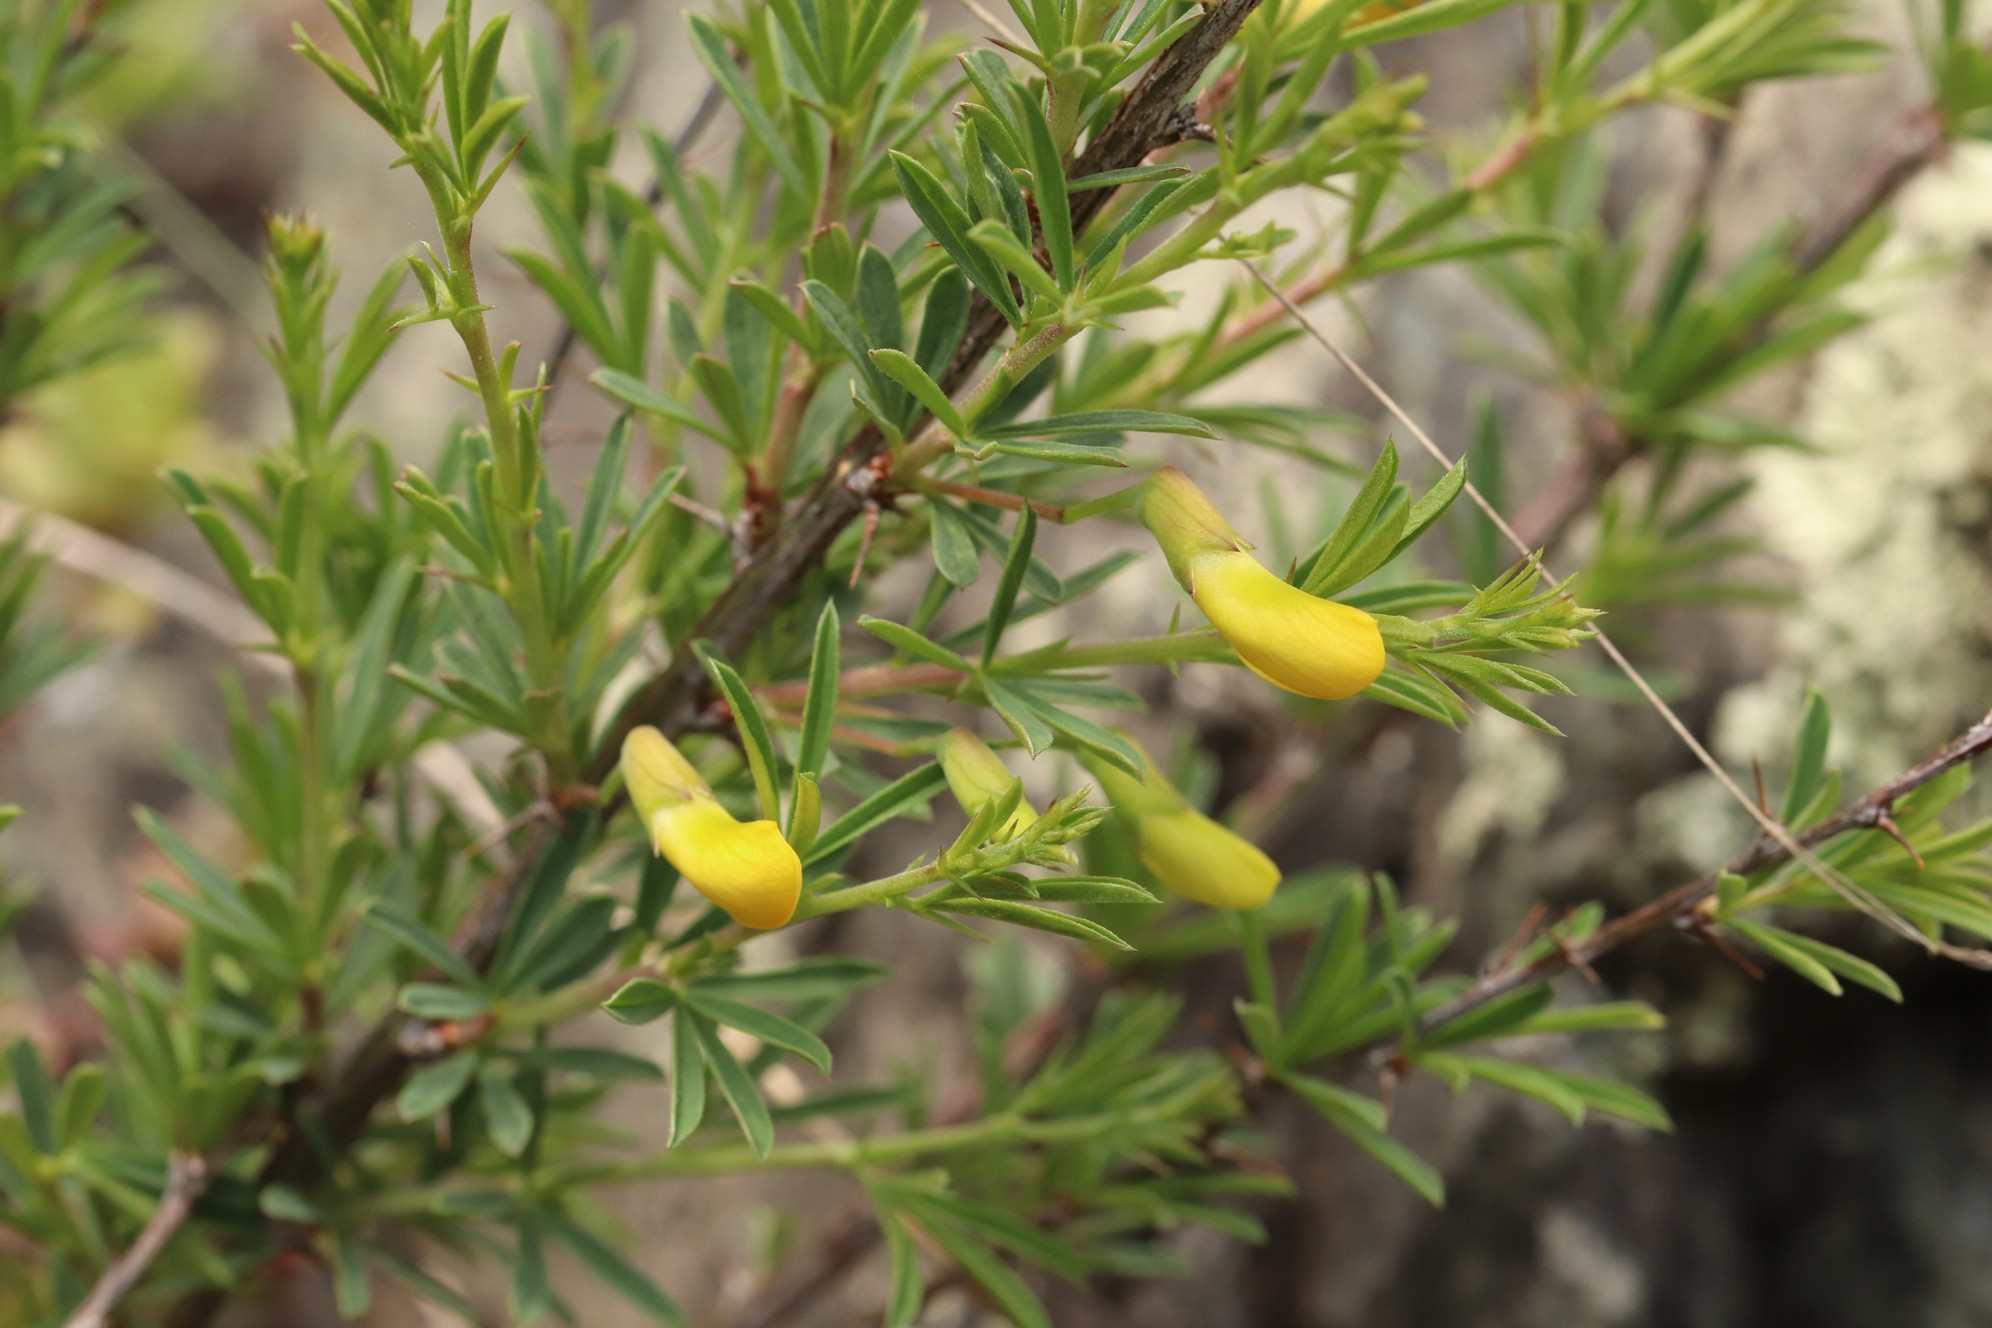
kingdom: Plantae
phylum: Tracheophyta
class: Magnoliopsida
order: Fabales
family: Fabaceae
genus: Caragana
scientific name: Caragana pygmaea
